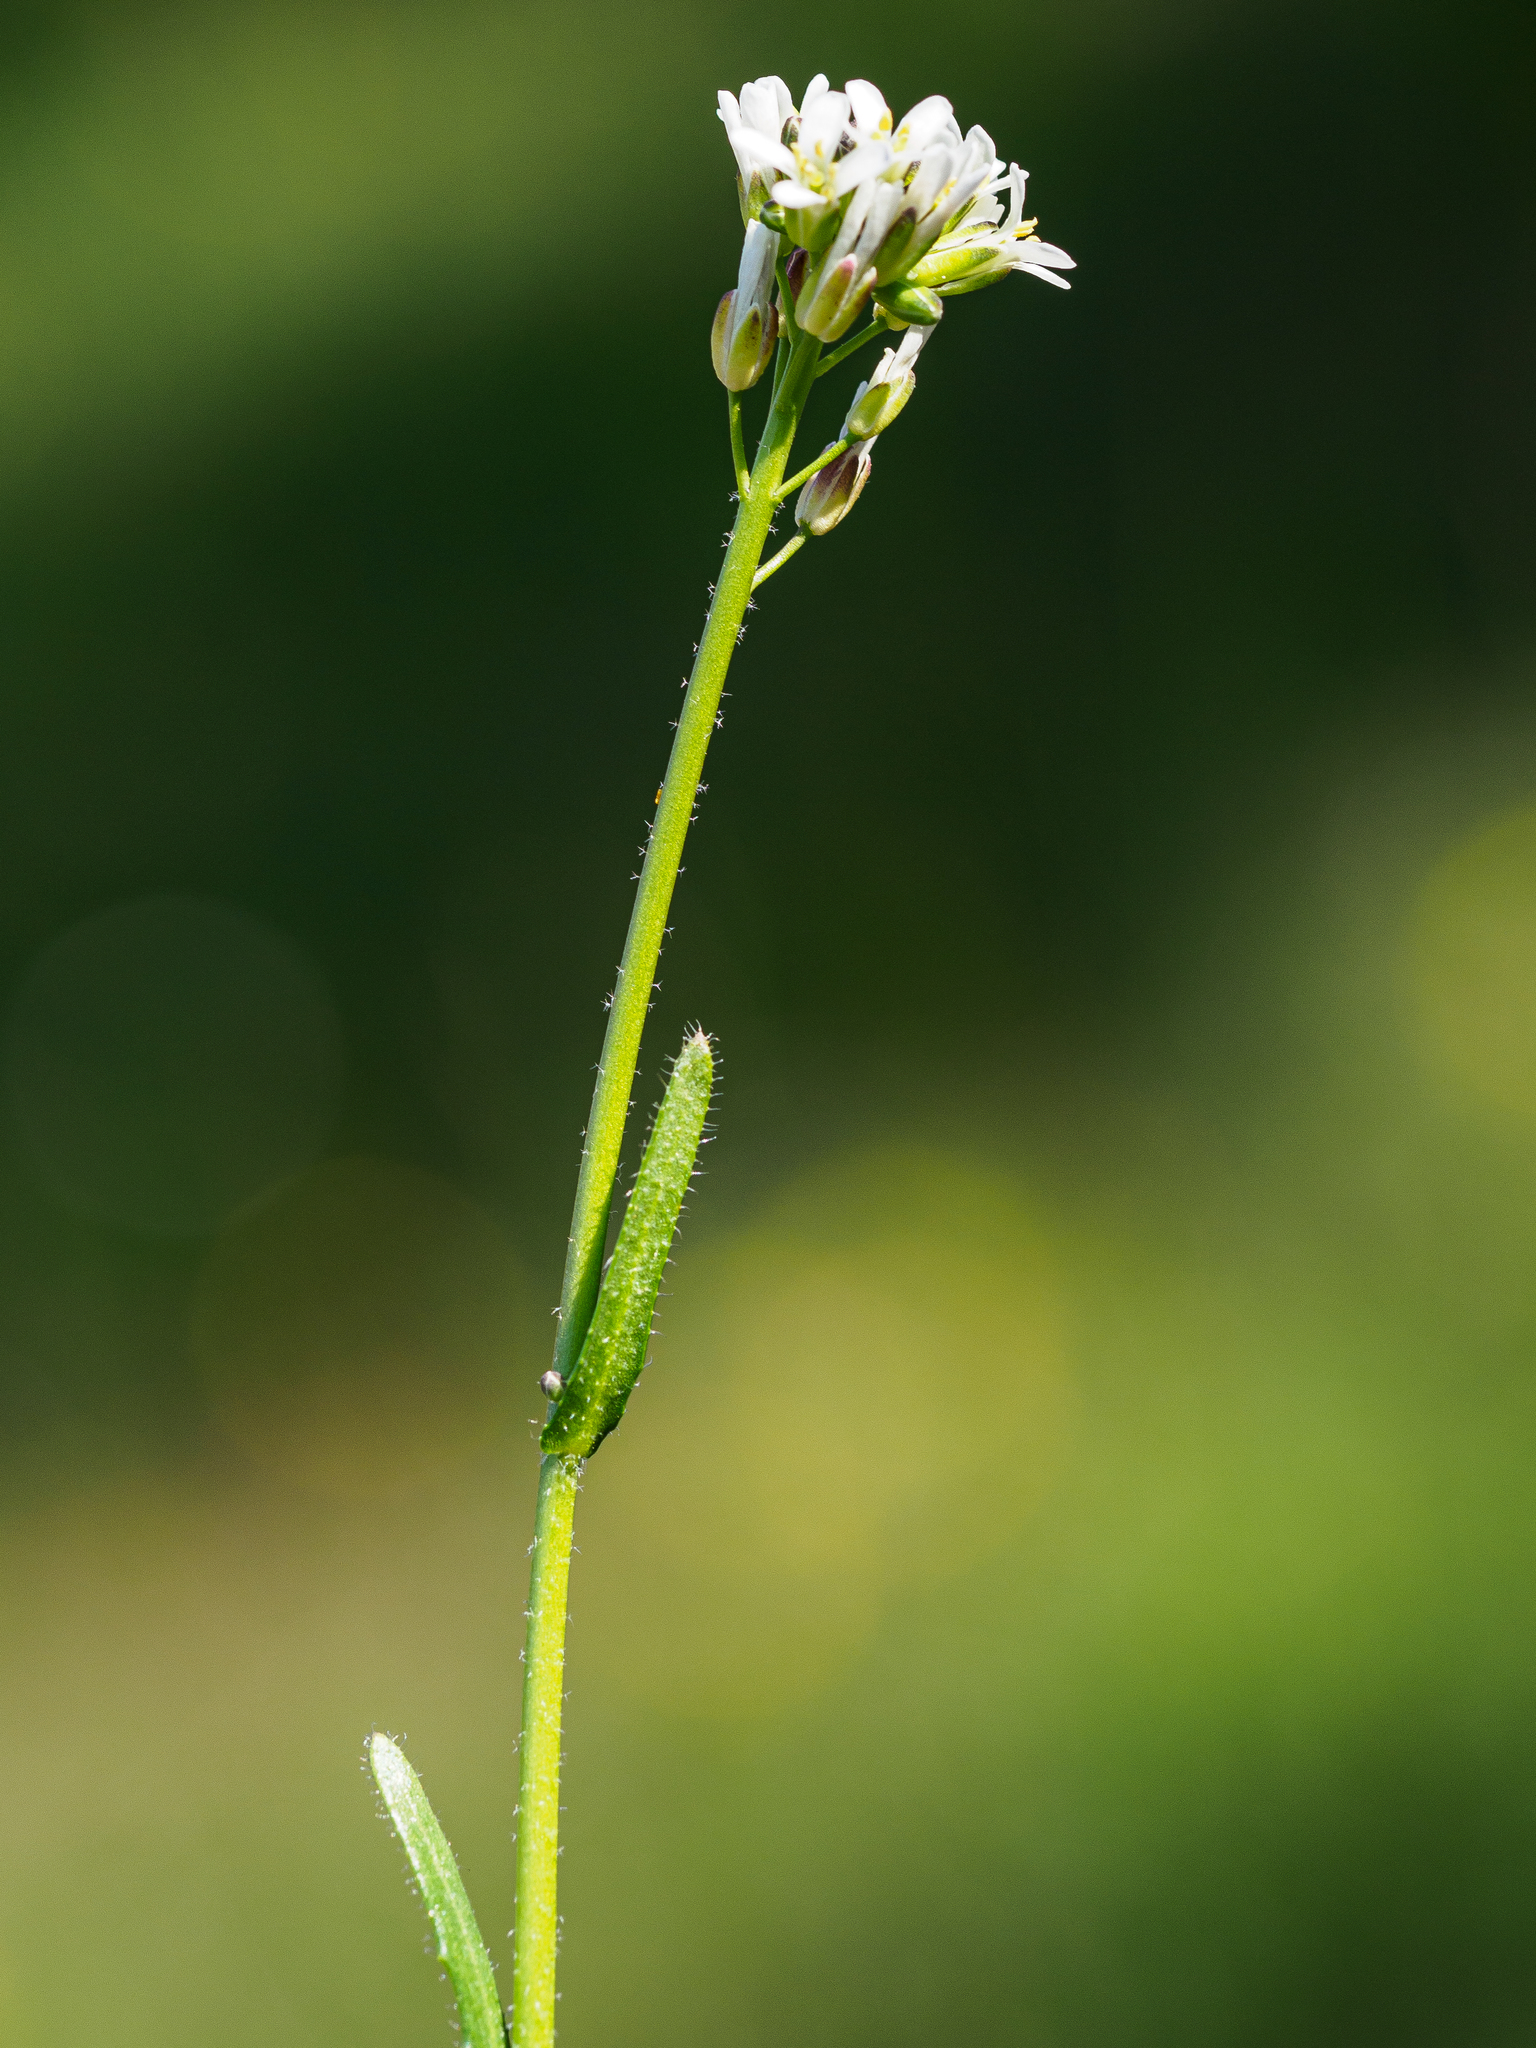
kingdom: Plantae
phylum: Tracheophyta
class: Magnoliopsida
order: Brassicales
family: Brassicaceae
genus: Arabis
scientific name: Arabis hirsuta
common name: Hairy rock-cress
